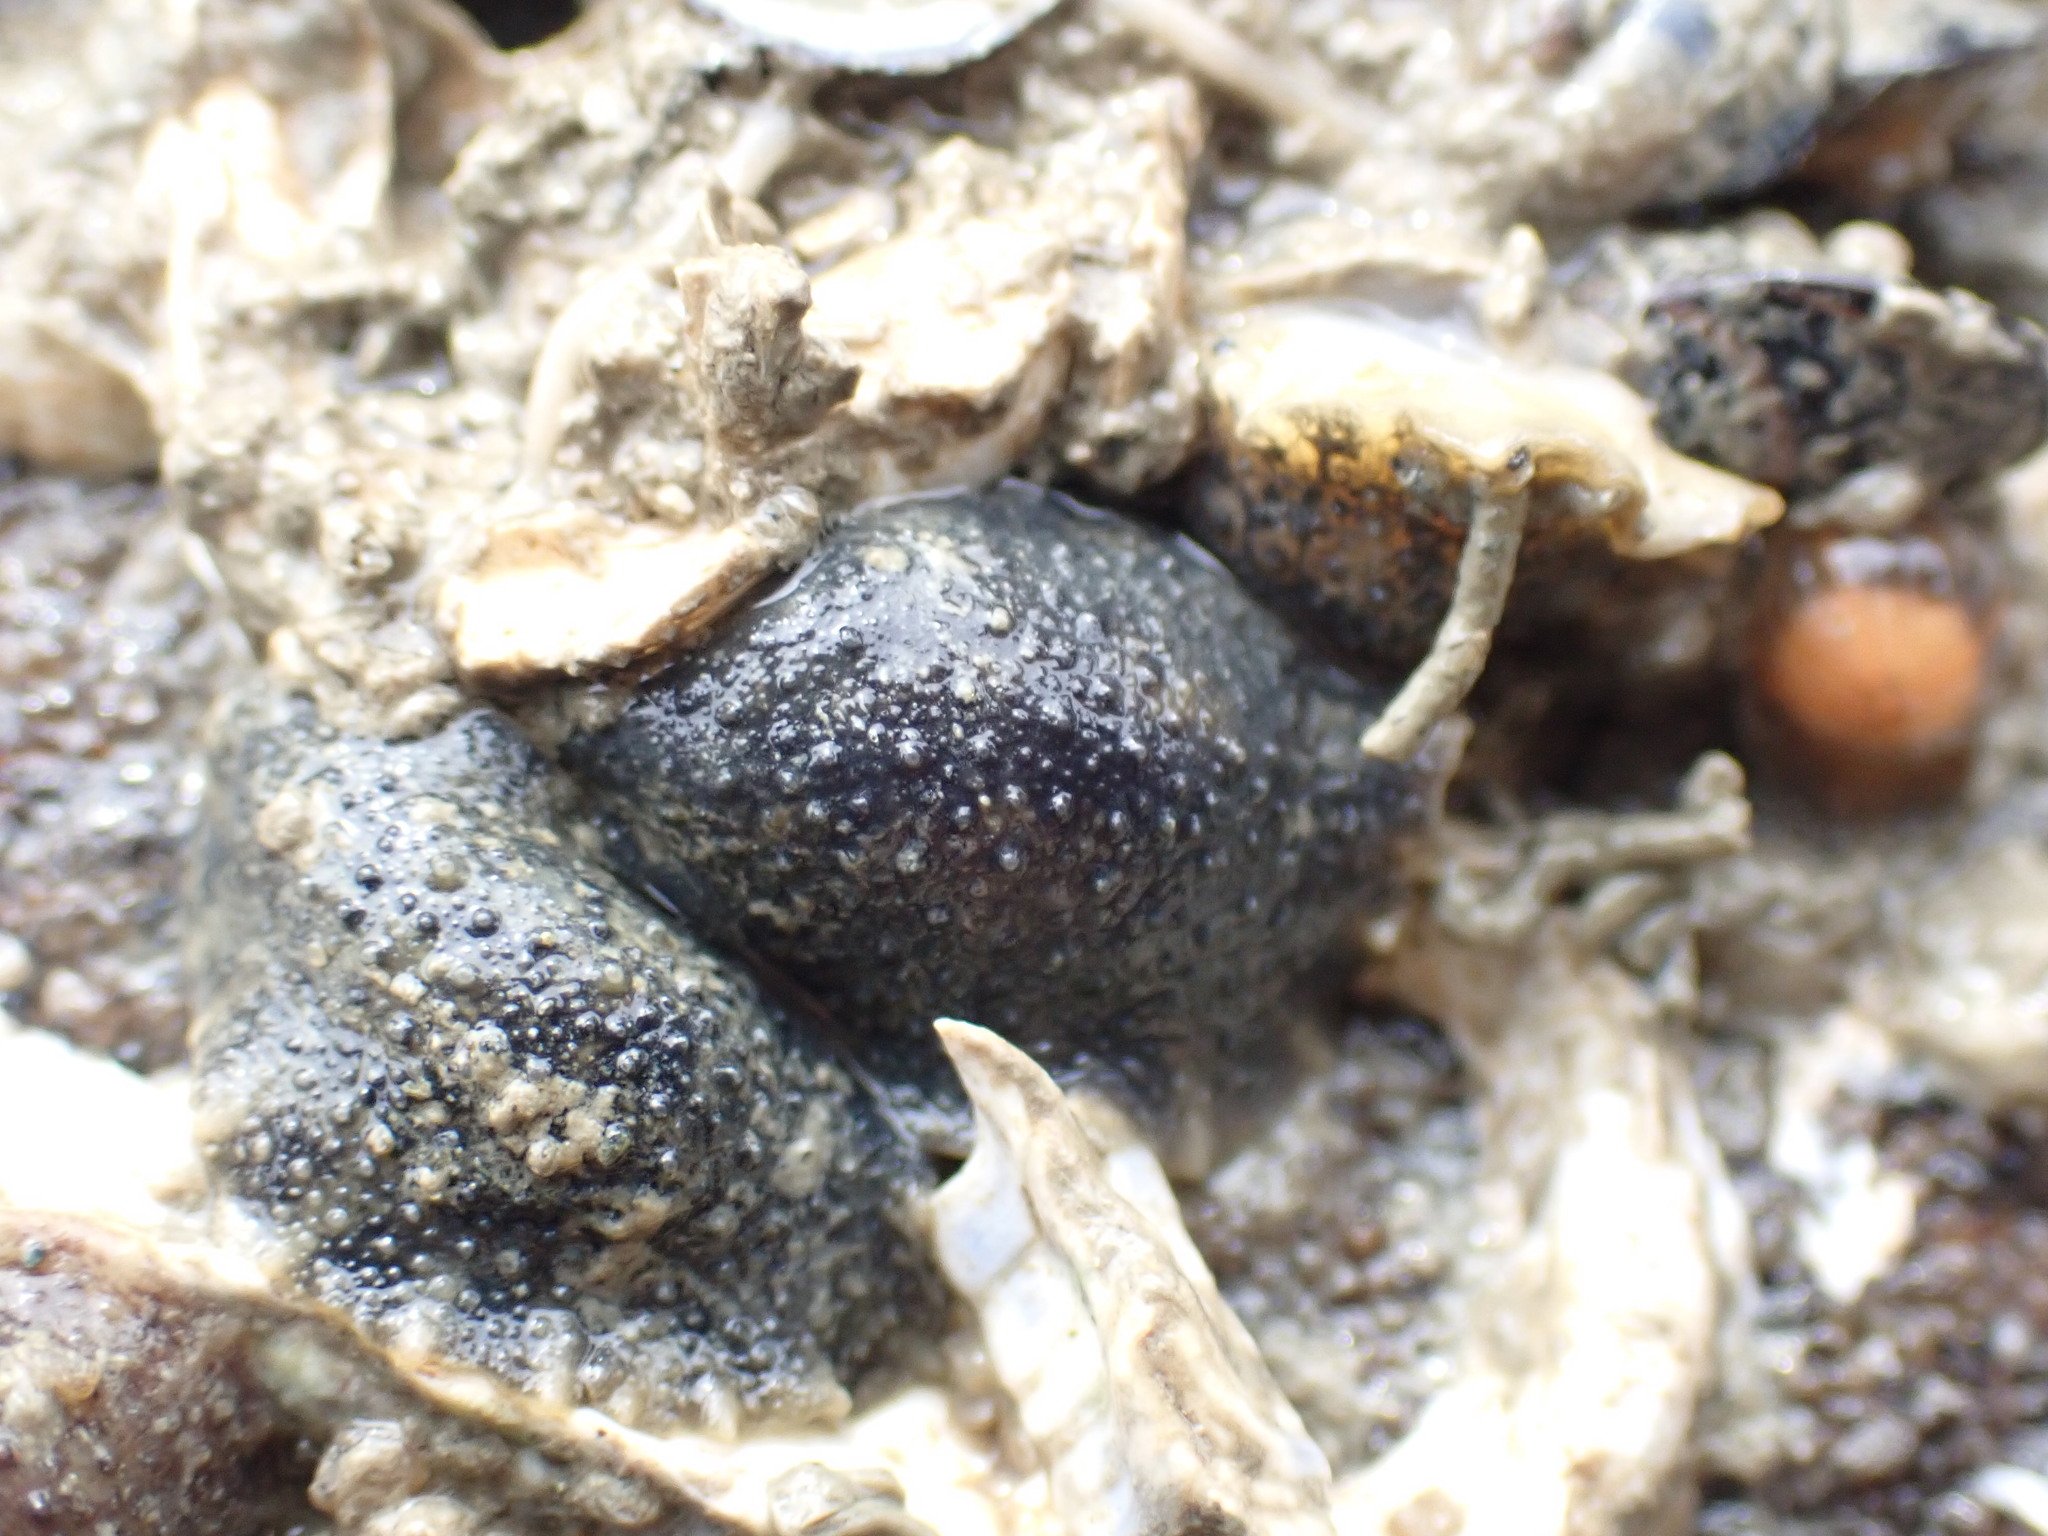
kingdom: Animalia
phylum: Mollusca
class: Gastropoda
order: Systellommatophora
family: Onchidiidae
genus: Onchidella
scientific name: Onchidella nigricans
